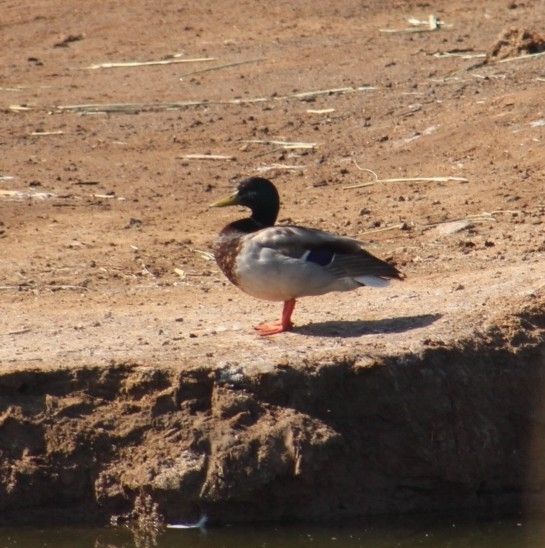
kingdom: Animalia
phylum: Chordata
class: Aves
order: Anseriformes
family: Anatidae
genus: Anas
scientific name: Anas platyrhynchos
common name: Mallard
